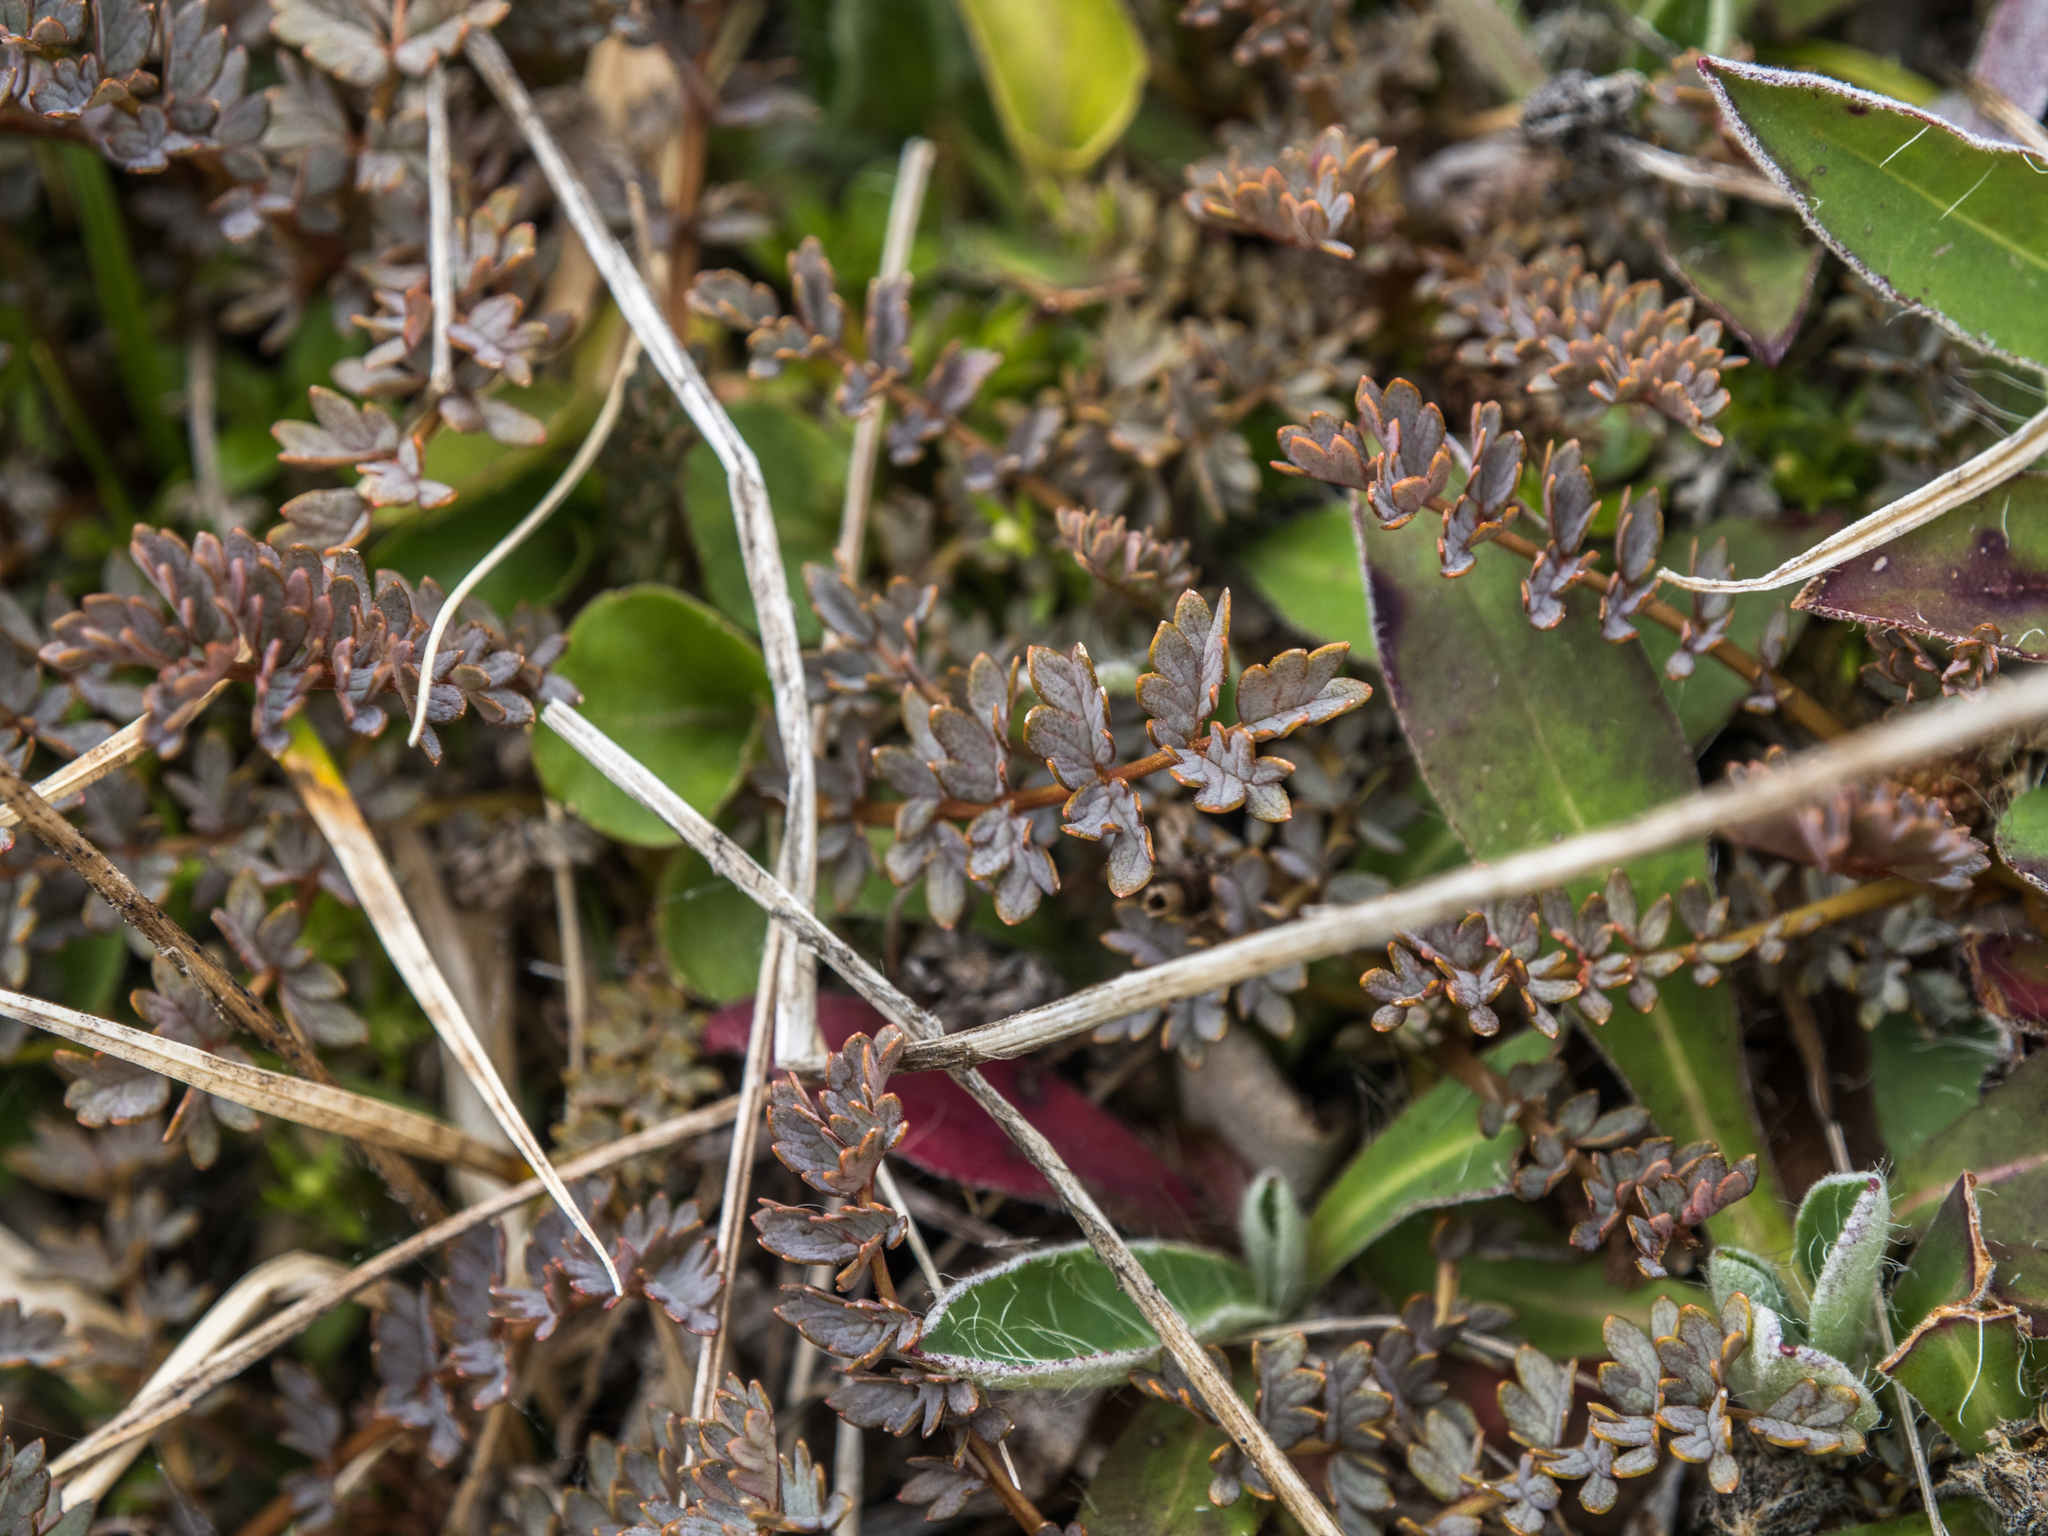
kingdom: Plantae
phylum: Tracheophyta
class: Magnoliopsida
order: Rosales
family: Rosaceae
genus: Acaena
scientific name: Acaena saccaticupula
